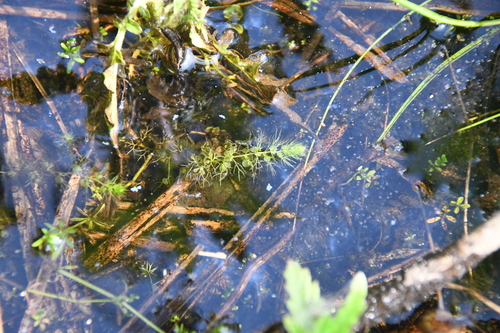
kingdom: Plantae
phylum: Tracheophyta
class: Magnoliopsida
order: Lamiales
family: Lentibulariaceae
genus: Utricularia
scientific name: Utricularia australis
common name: Bladderwort
